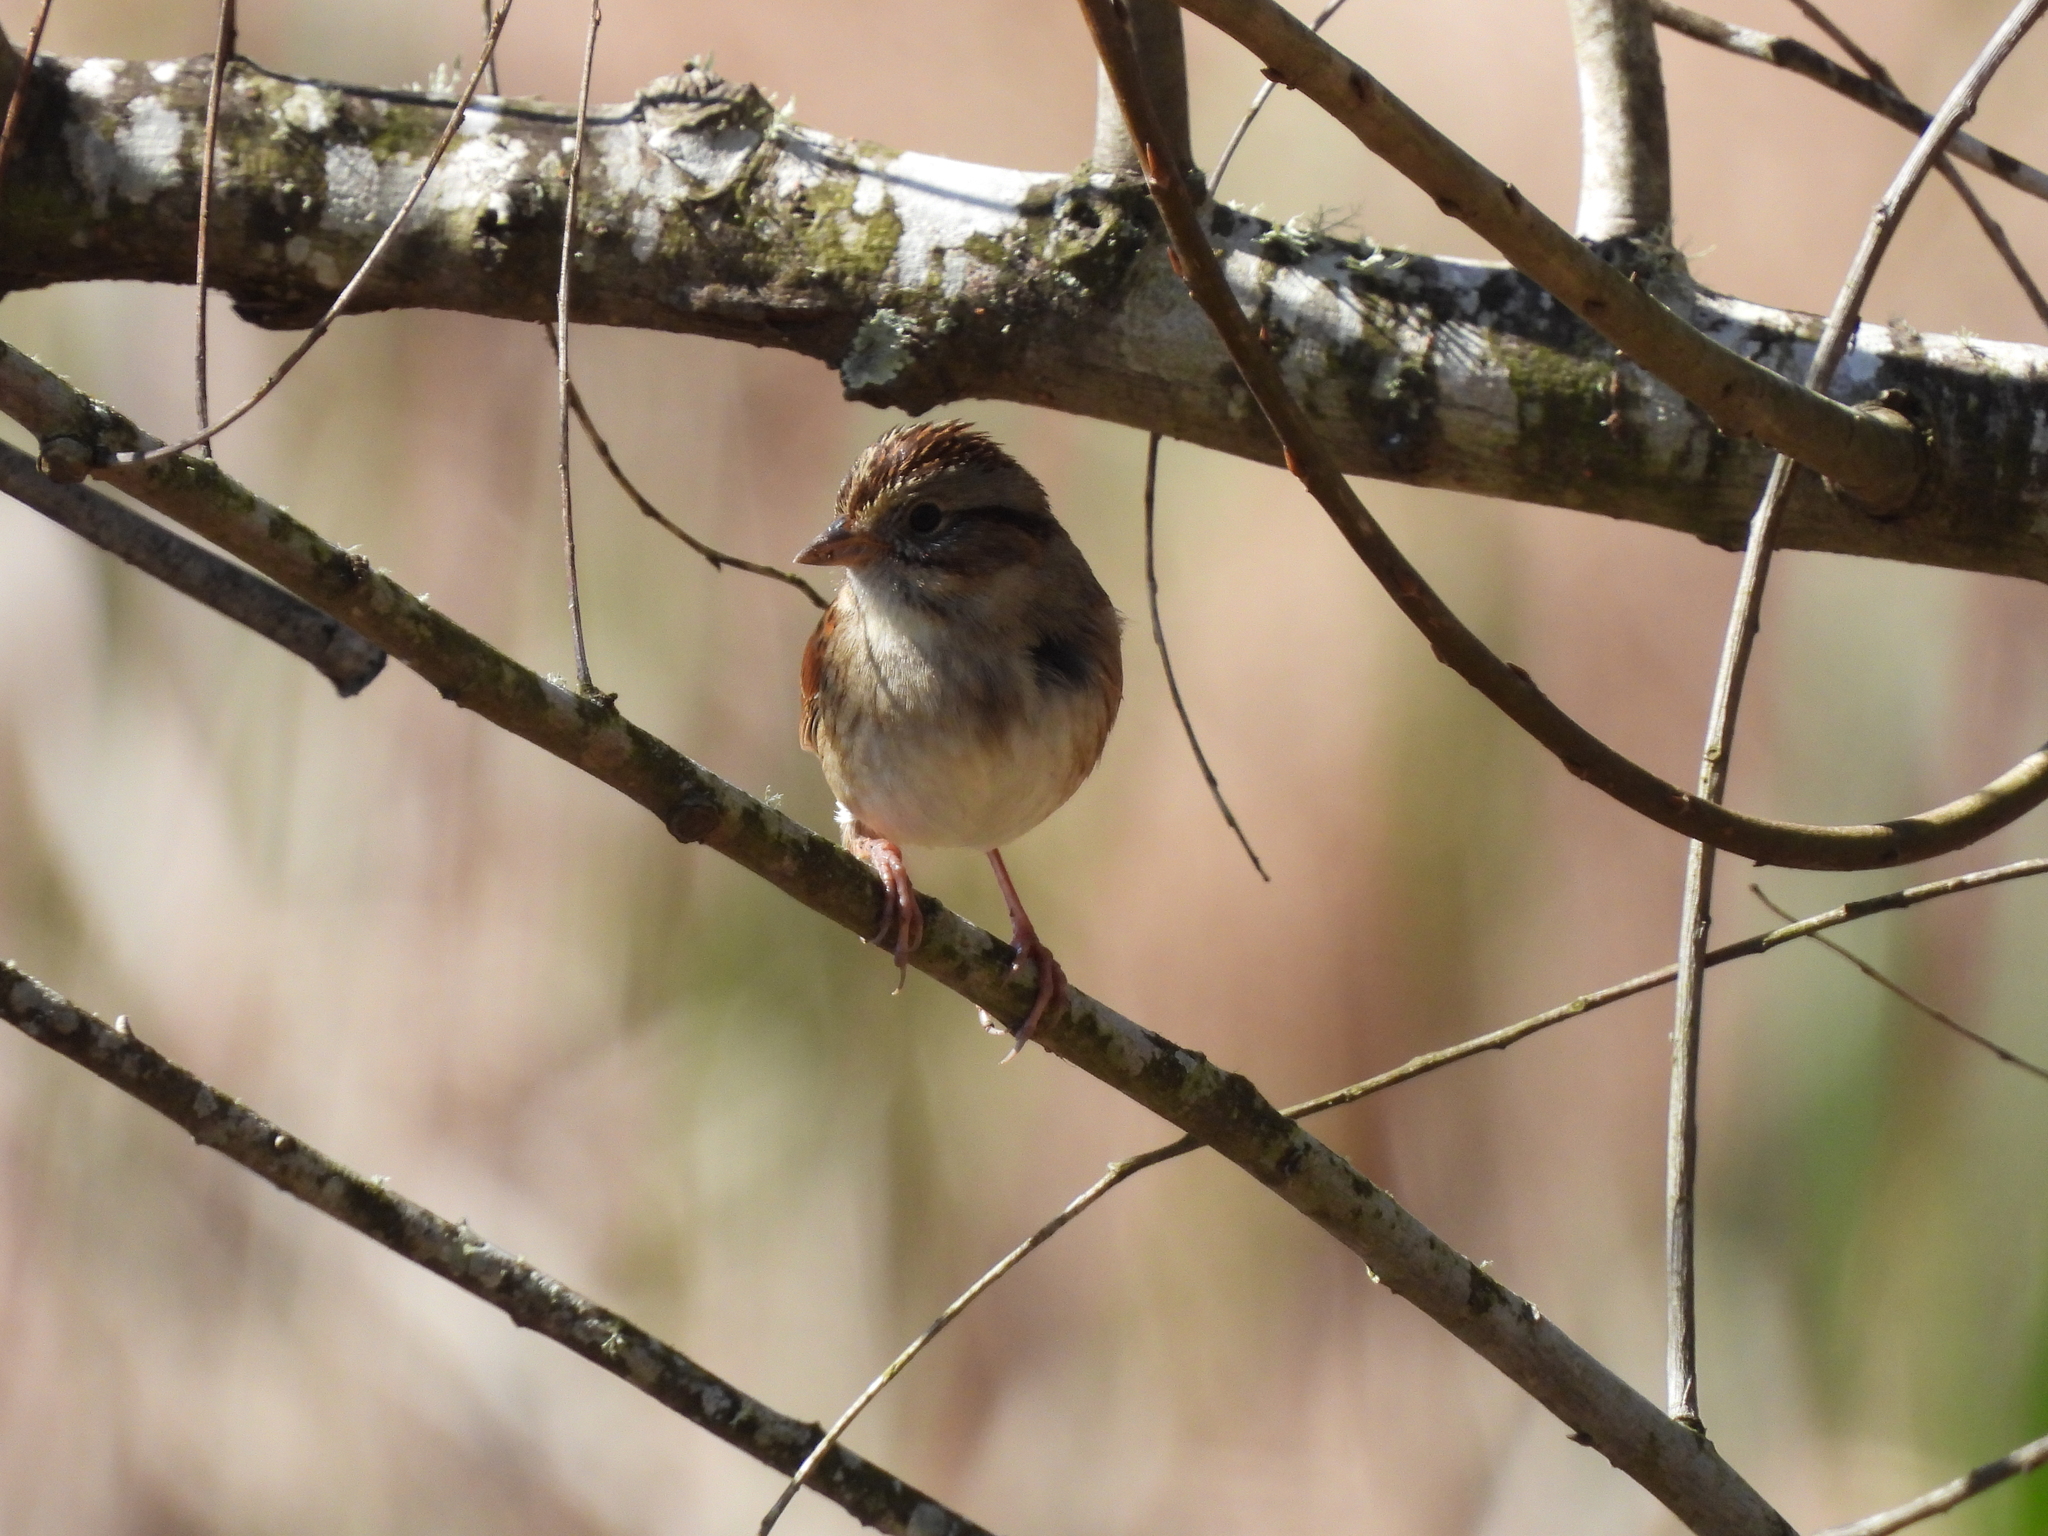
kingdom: Animalia
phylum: Chordata
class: Aves
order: Passeriformes
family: Passerellidae
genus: Melospiza
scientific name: Melospiza georgiana
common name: Swamp sparrow
